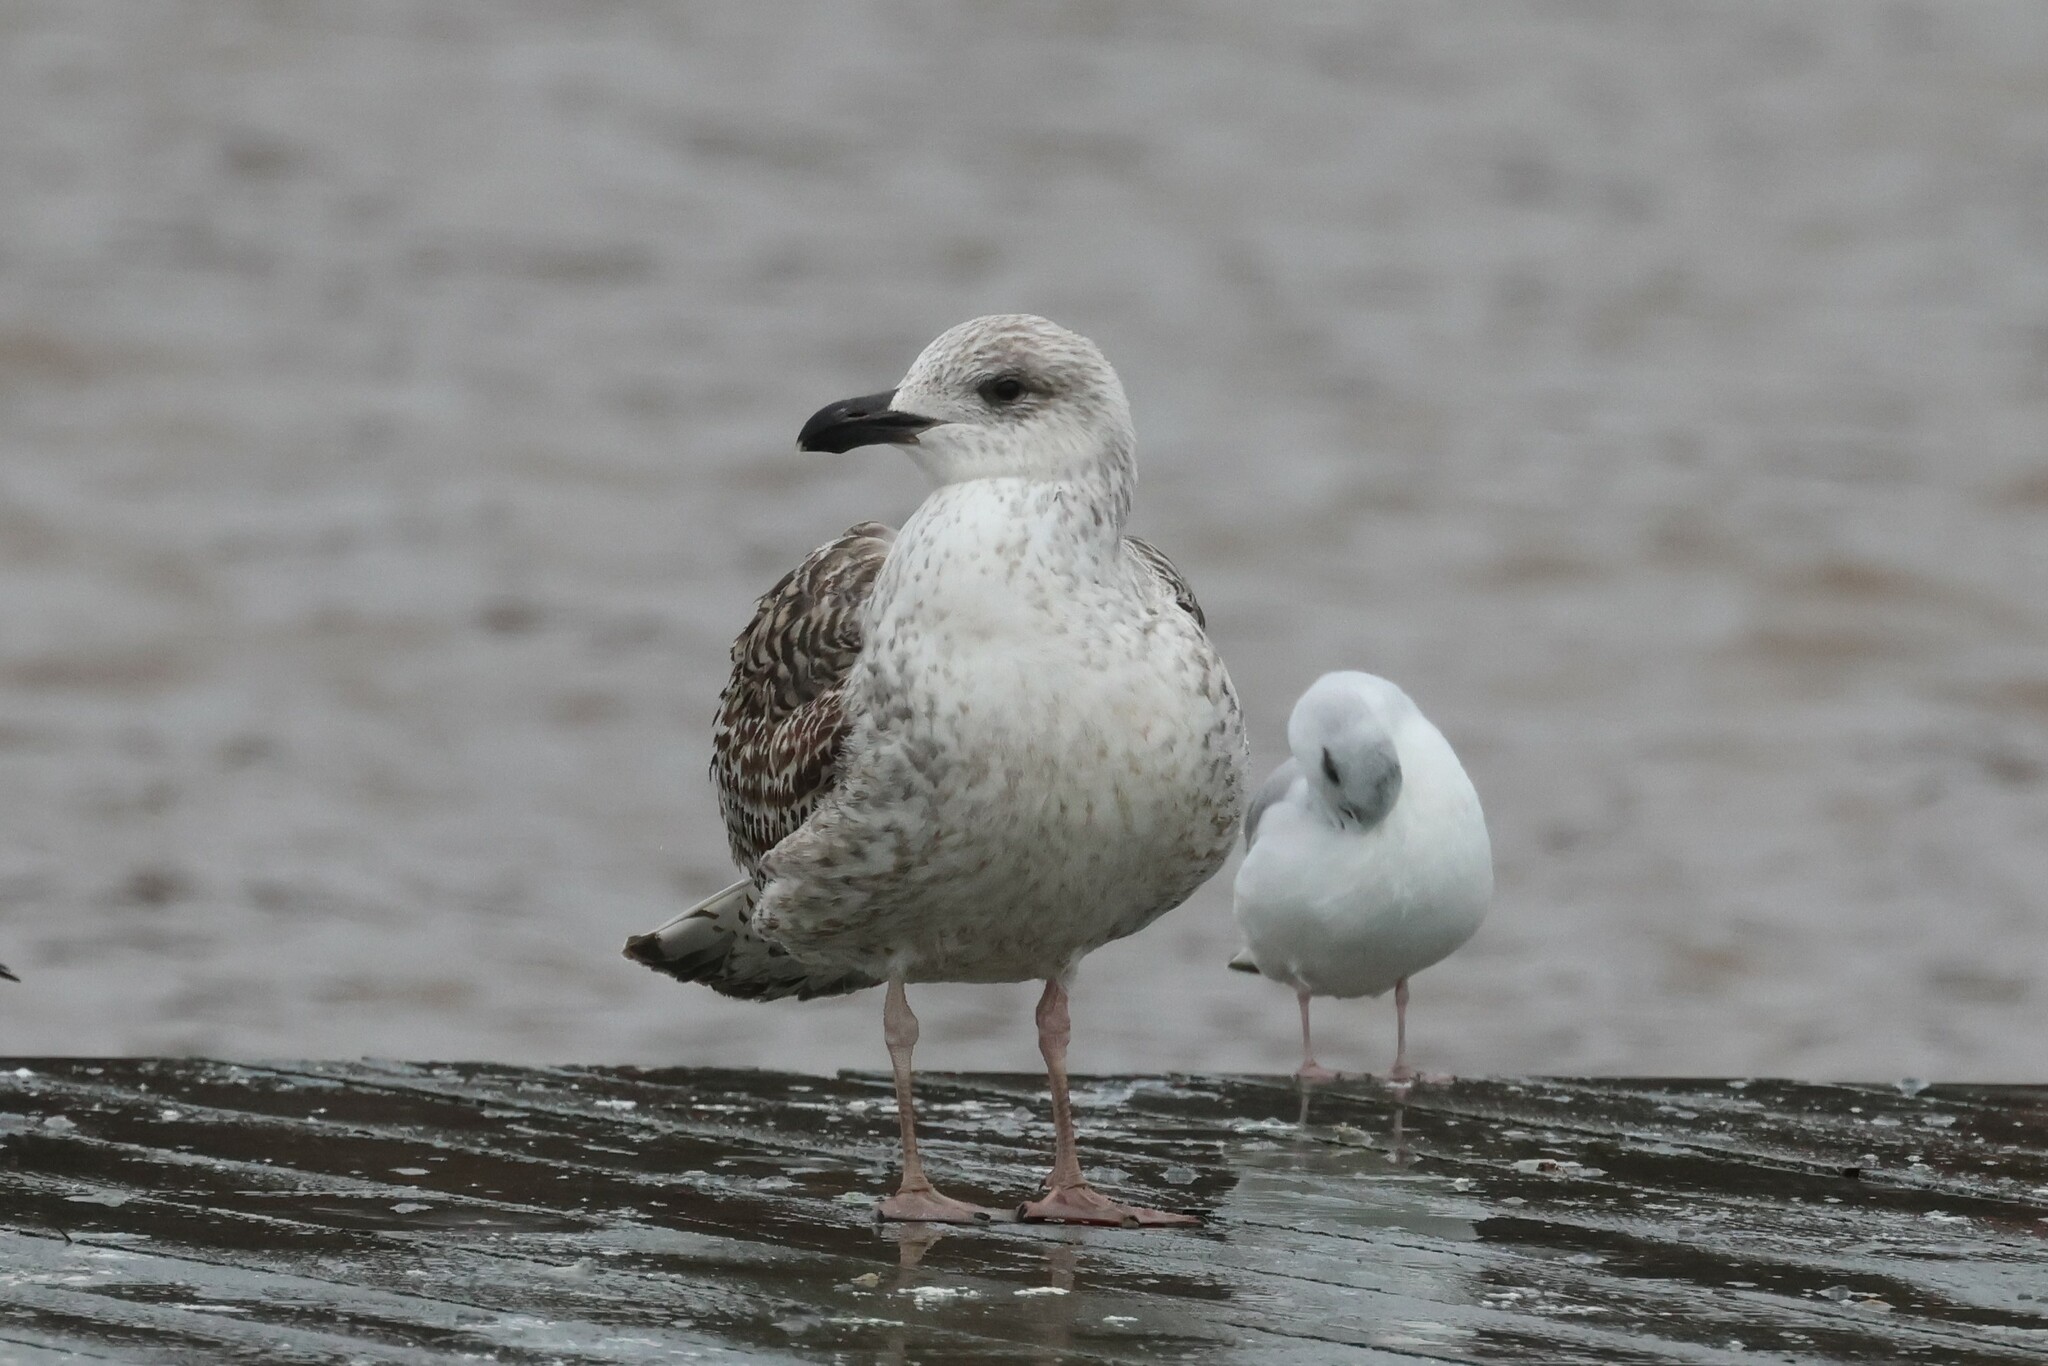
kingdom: Animalia
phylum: Chordata
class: Aves
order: Charadriiformes
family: Laridae
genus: Larus
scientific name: Larus marinus
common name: Great black-backed gull
